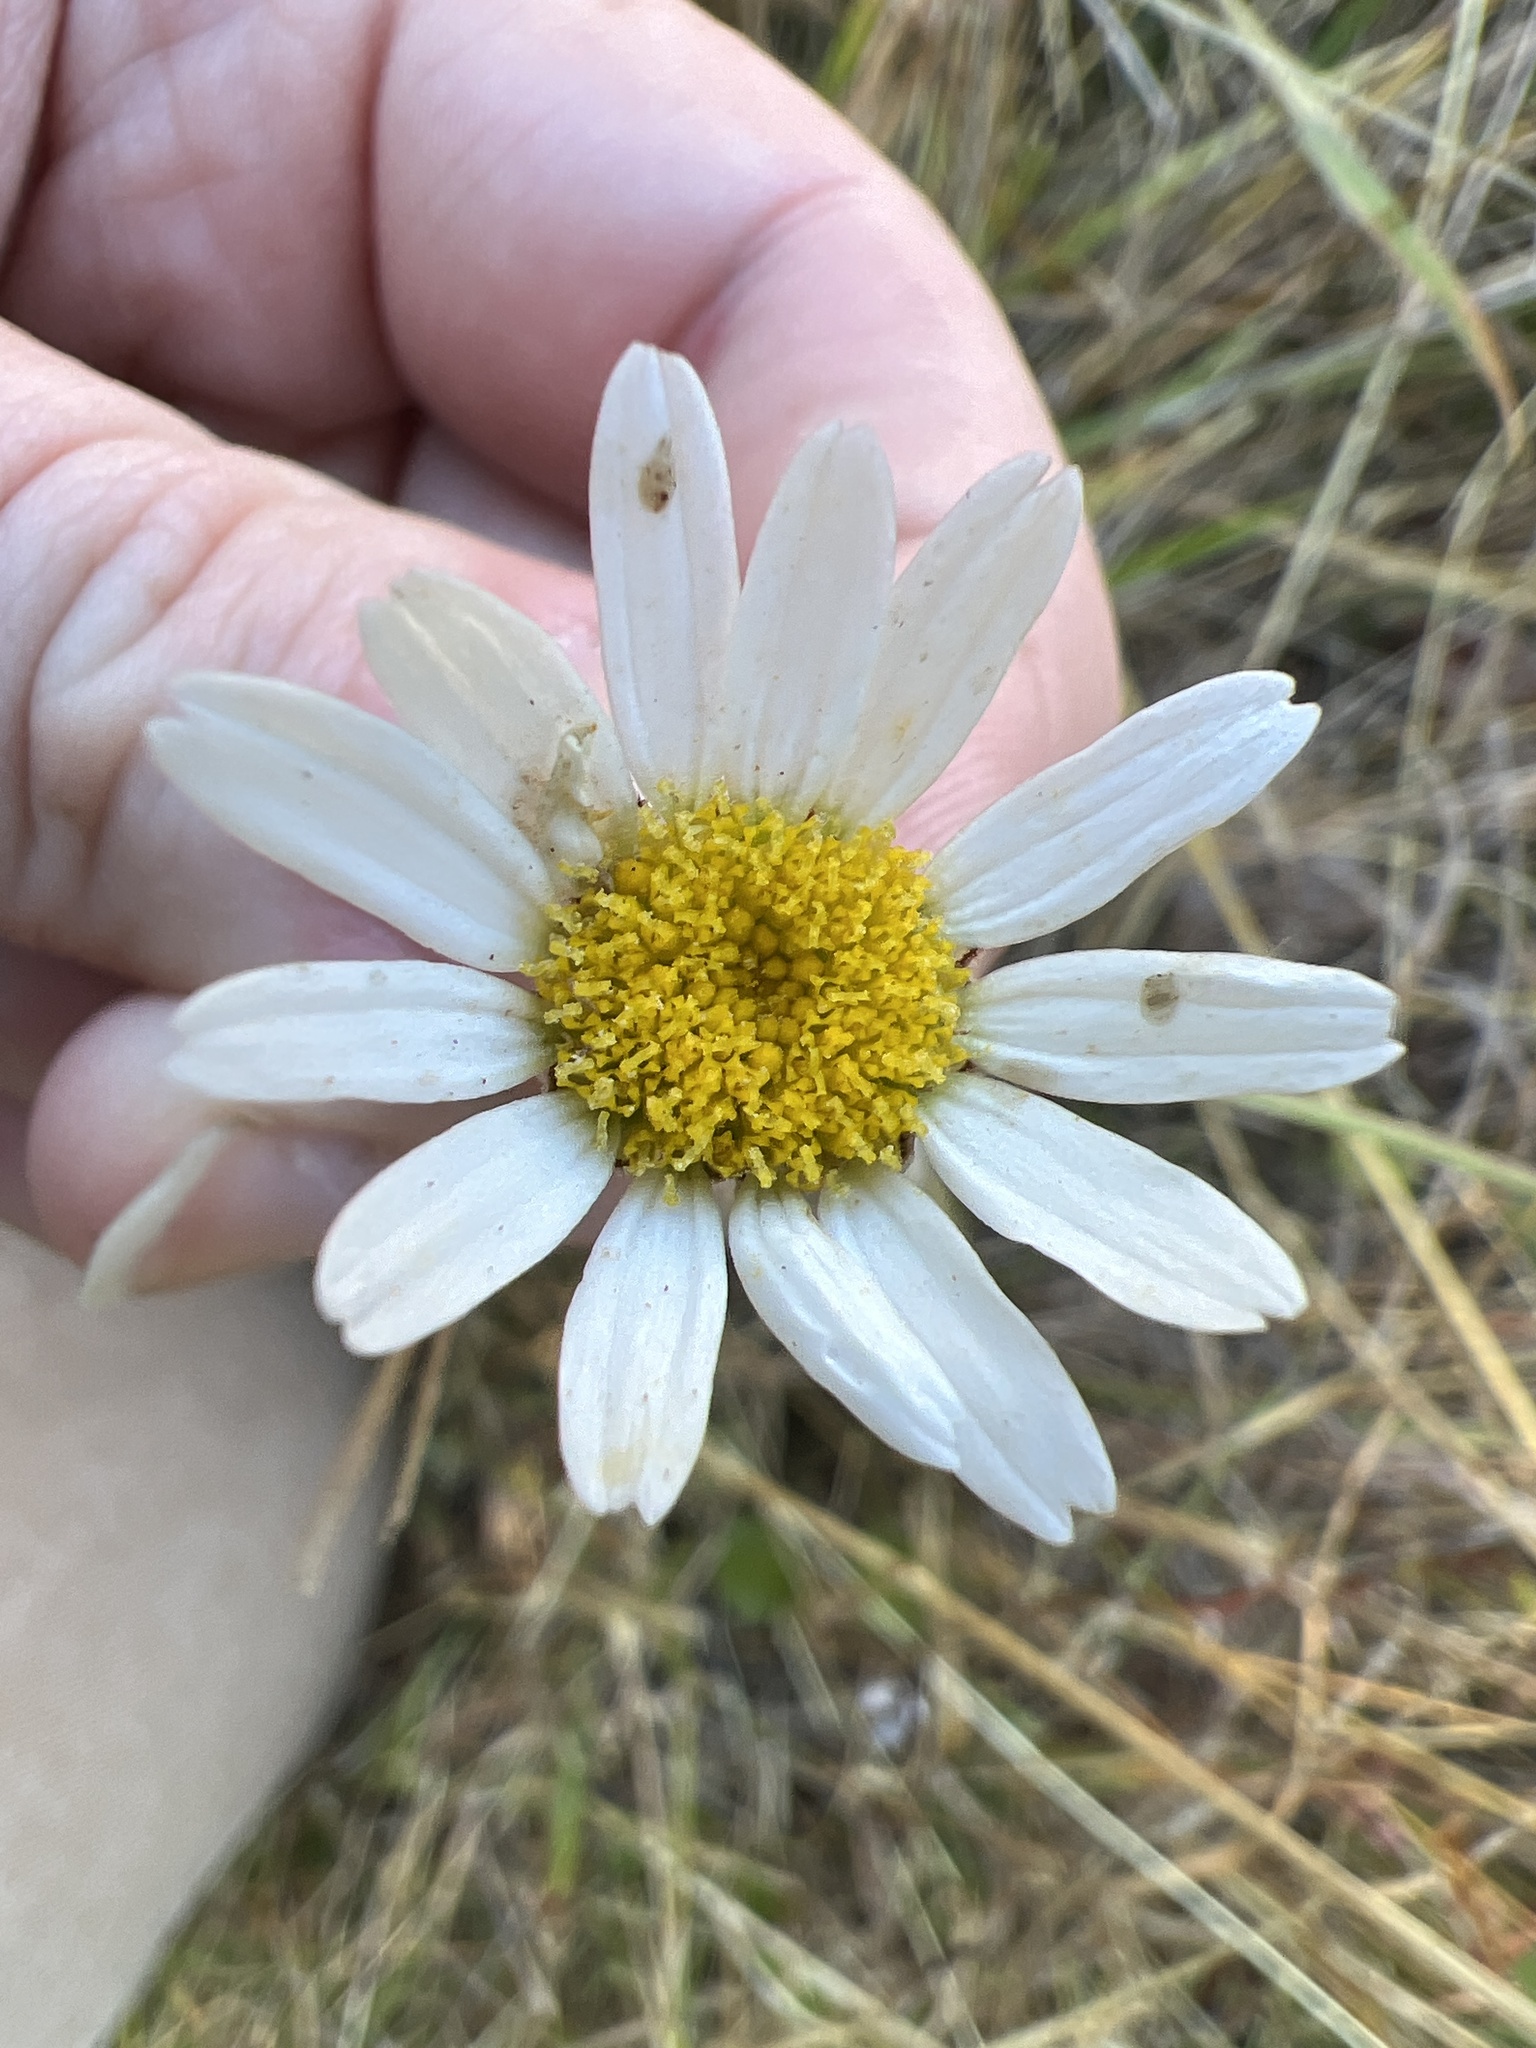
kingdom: Plantae
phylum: Tracheophyta
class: Magnoliopsida
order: Asterales
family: Asteraceae
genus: Leucanthemum
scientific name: Leucanthemum vulgare
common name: Oxeye daisy
